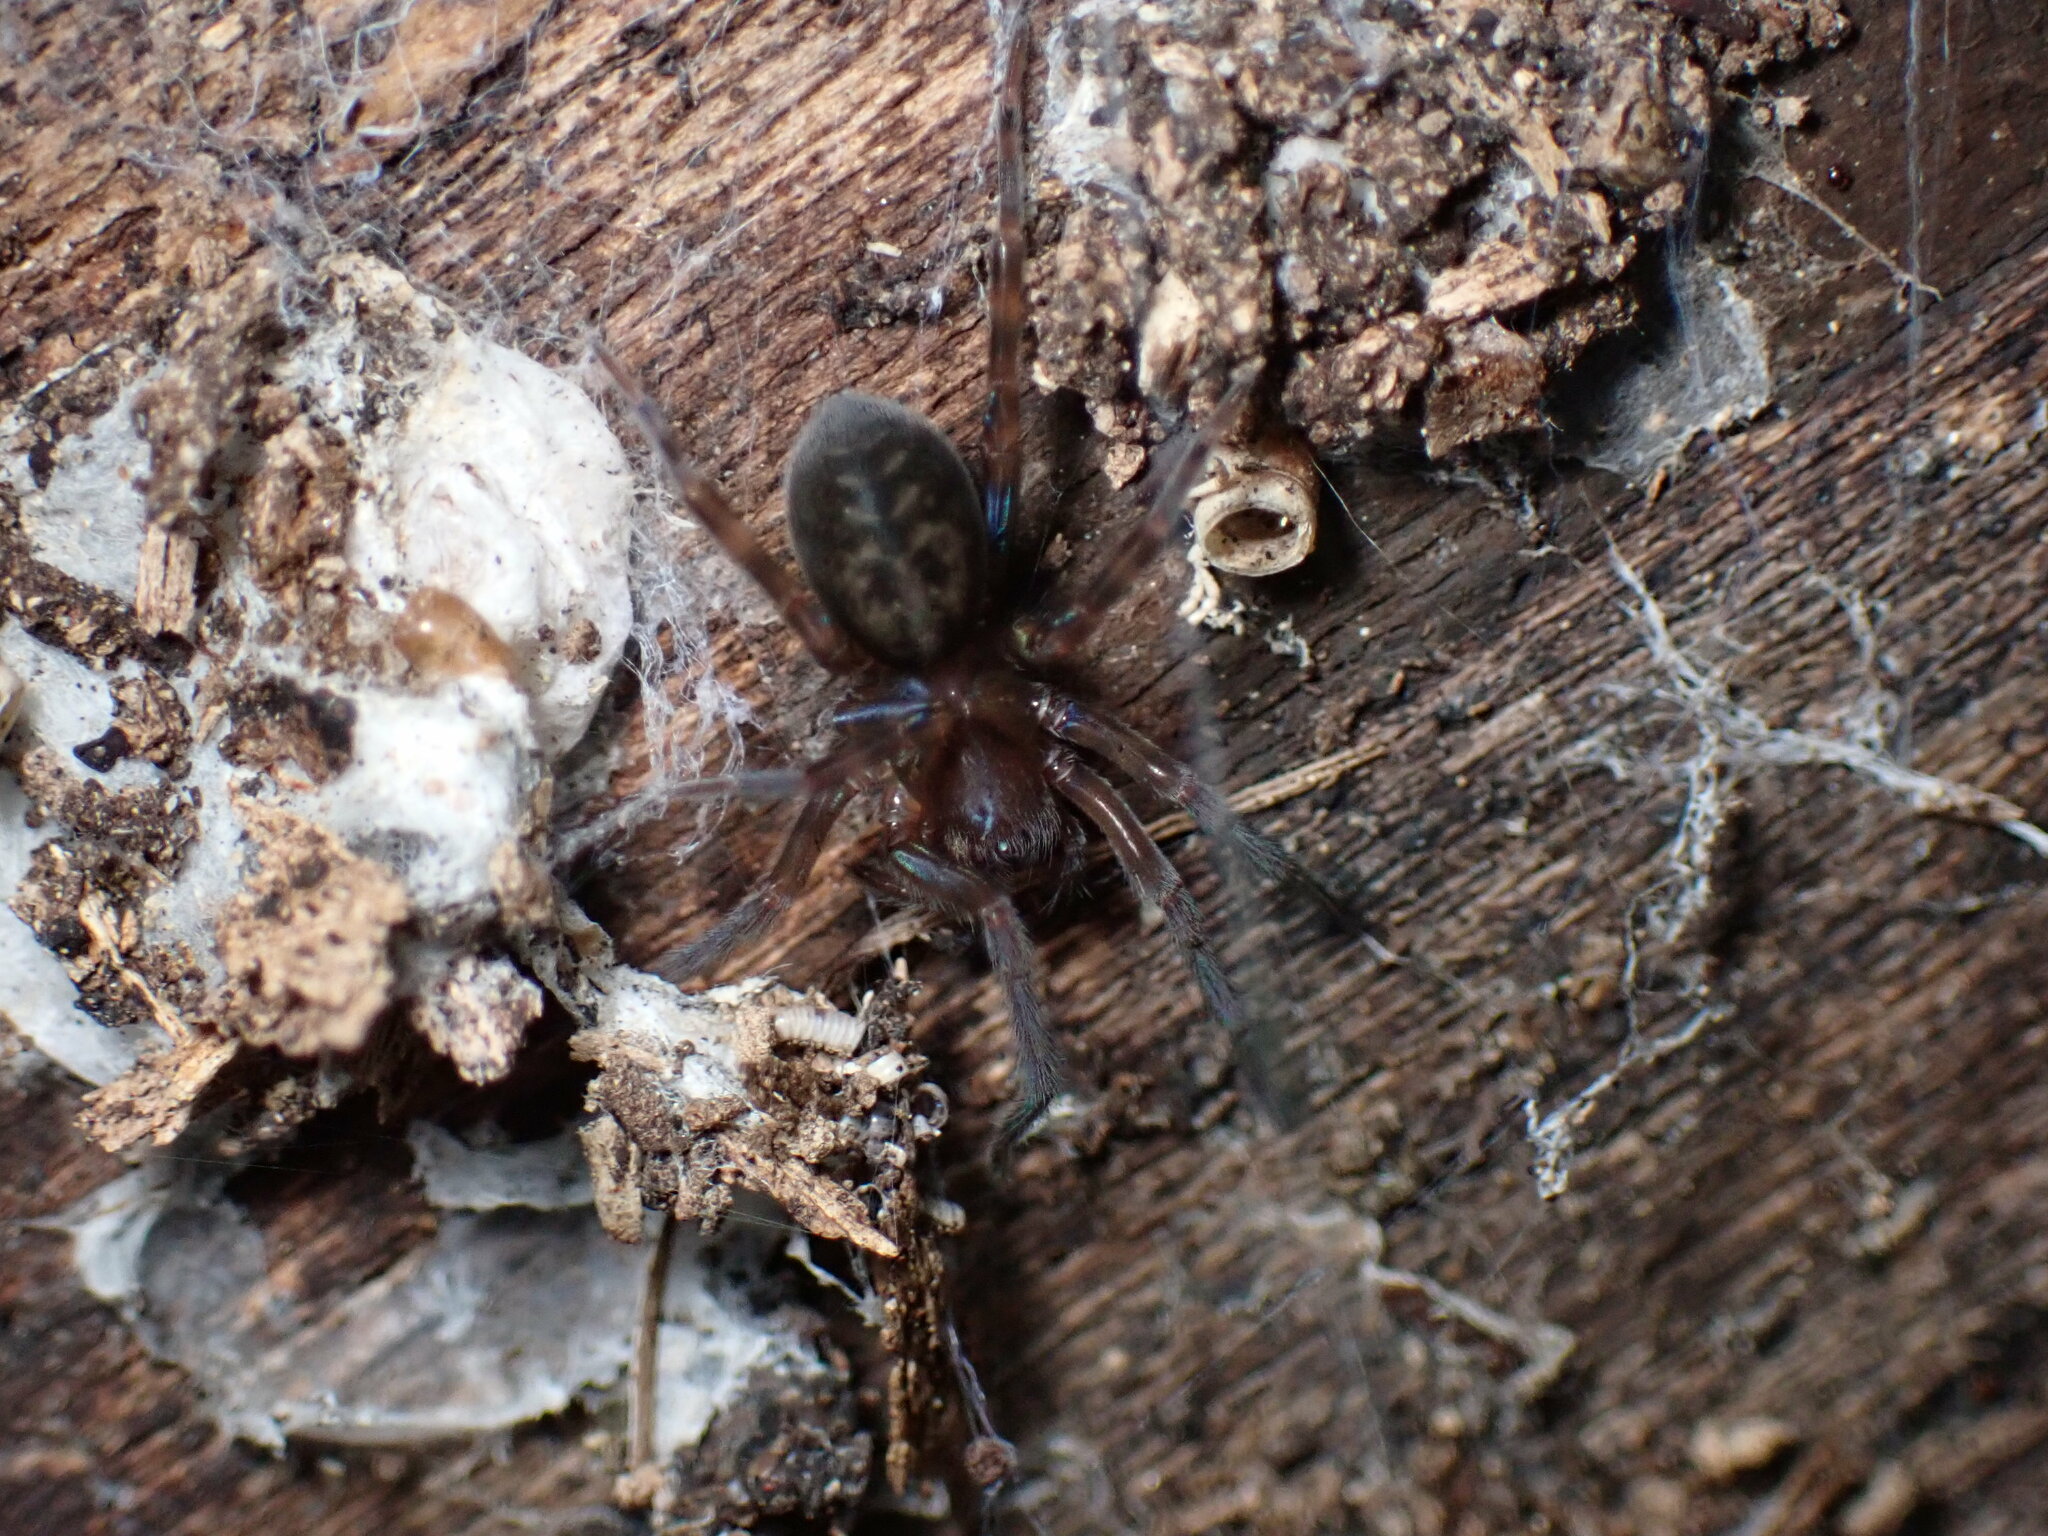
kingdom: Animalia
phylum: Arthropoda
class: Arachnida
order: Araneae
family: Amaurobiidae
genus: Amaurobius
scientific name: Amaurobius ferox
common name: Black laceweaver
